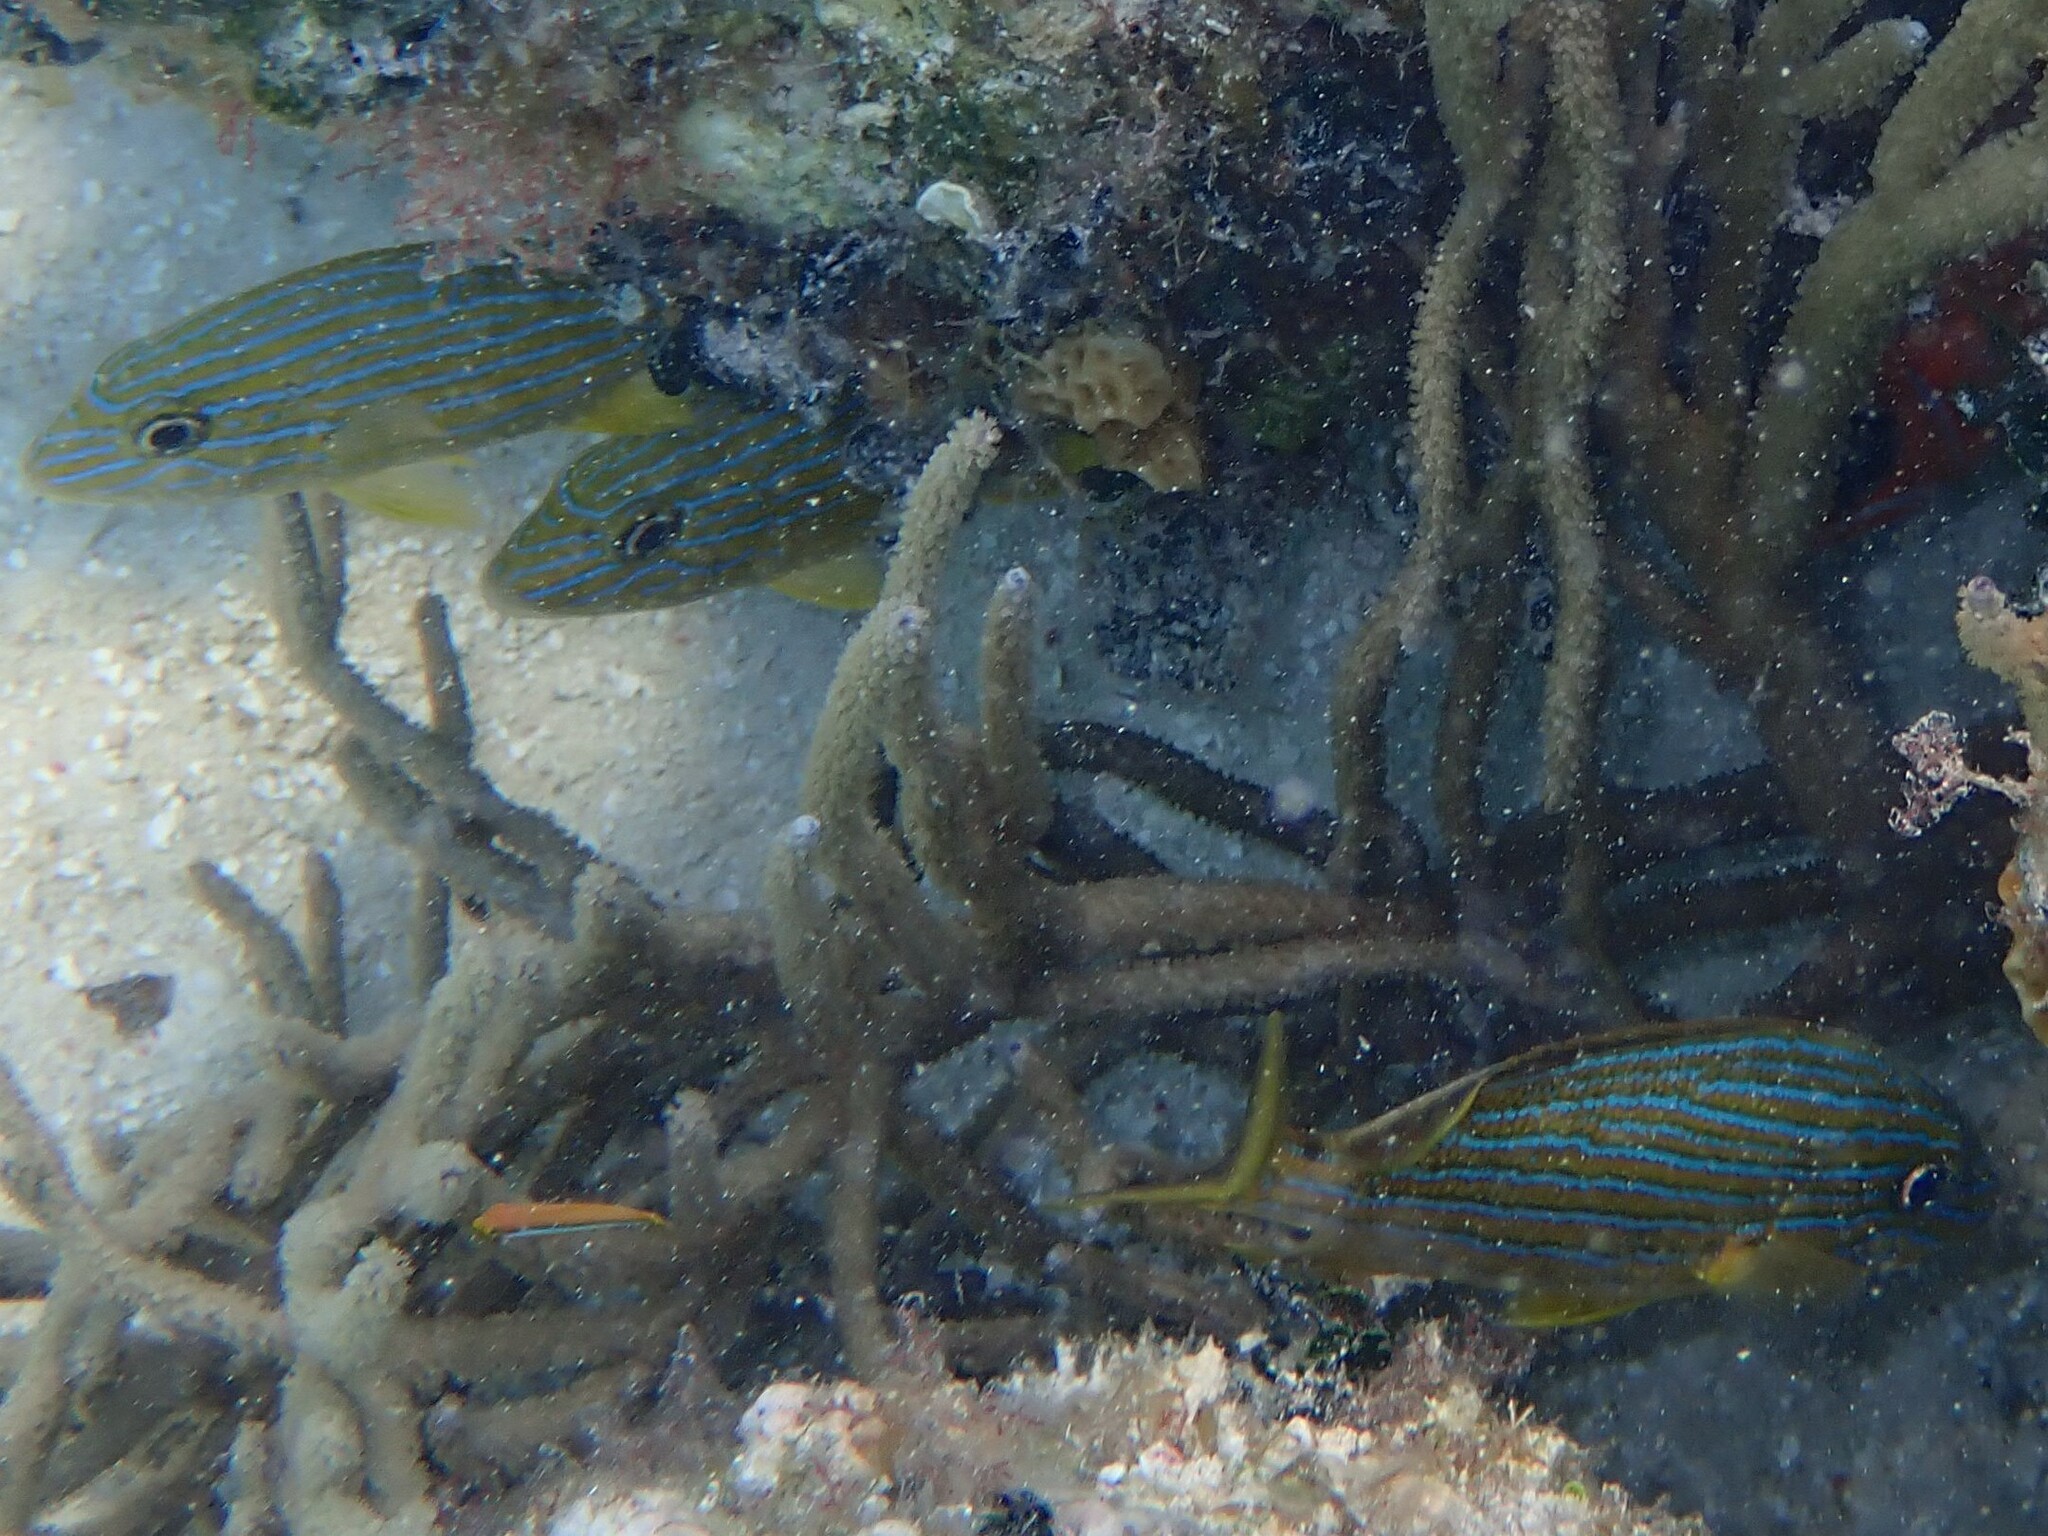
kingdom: Animalia
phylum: Chordata
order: Perciformes
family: Haemulidae
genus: Haemulon
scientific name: Haemulon sciurus
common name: Bluestriped grunt
